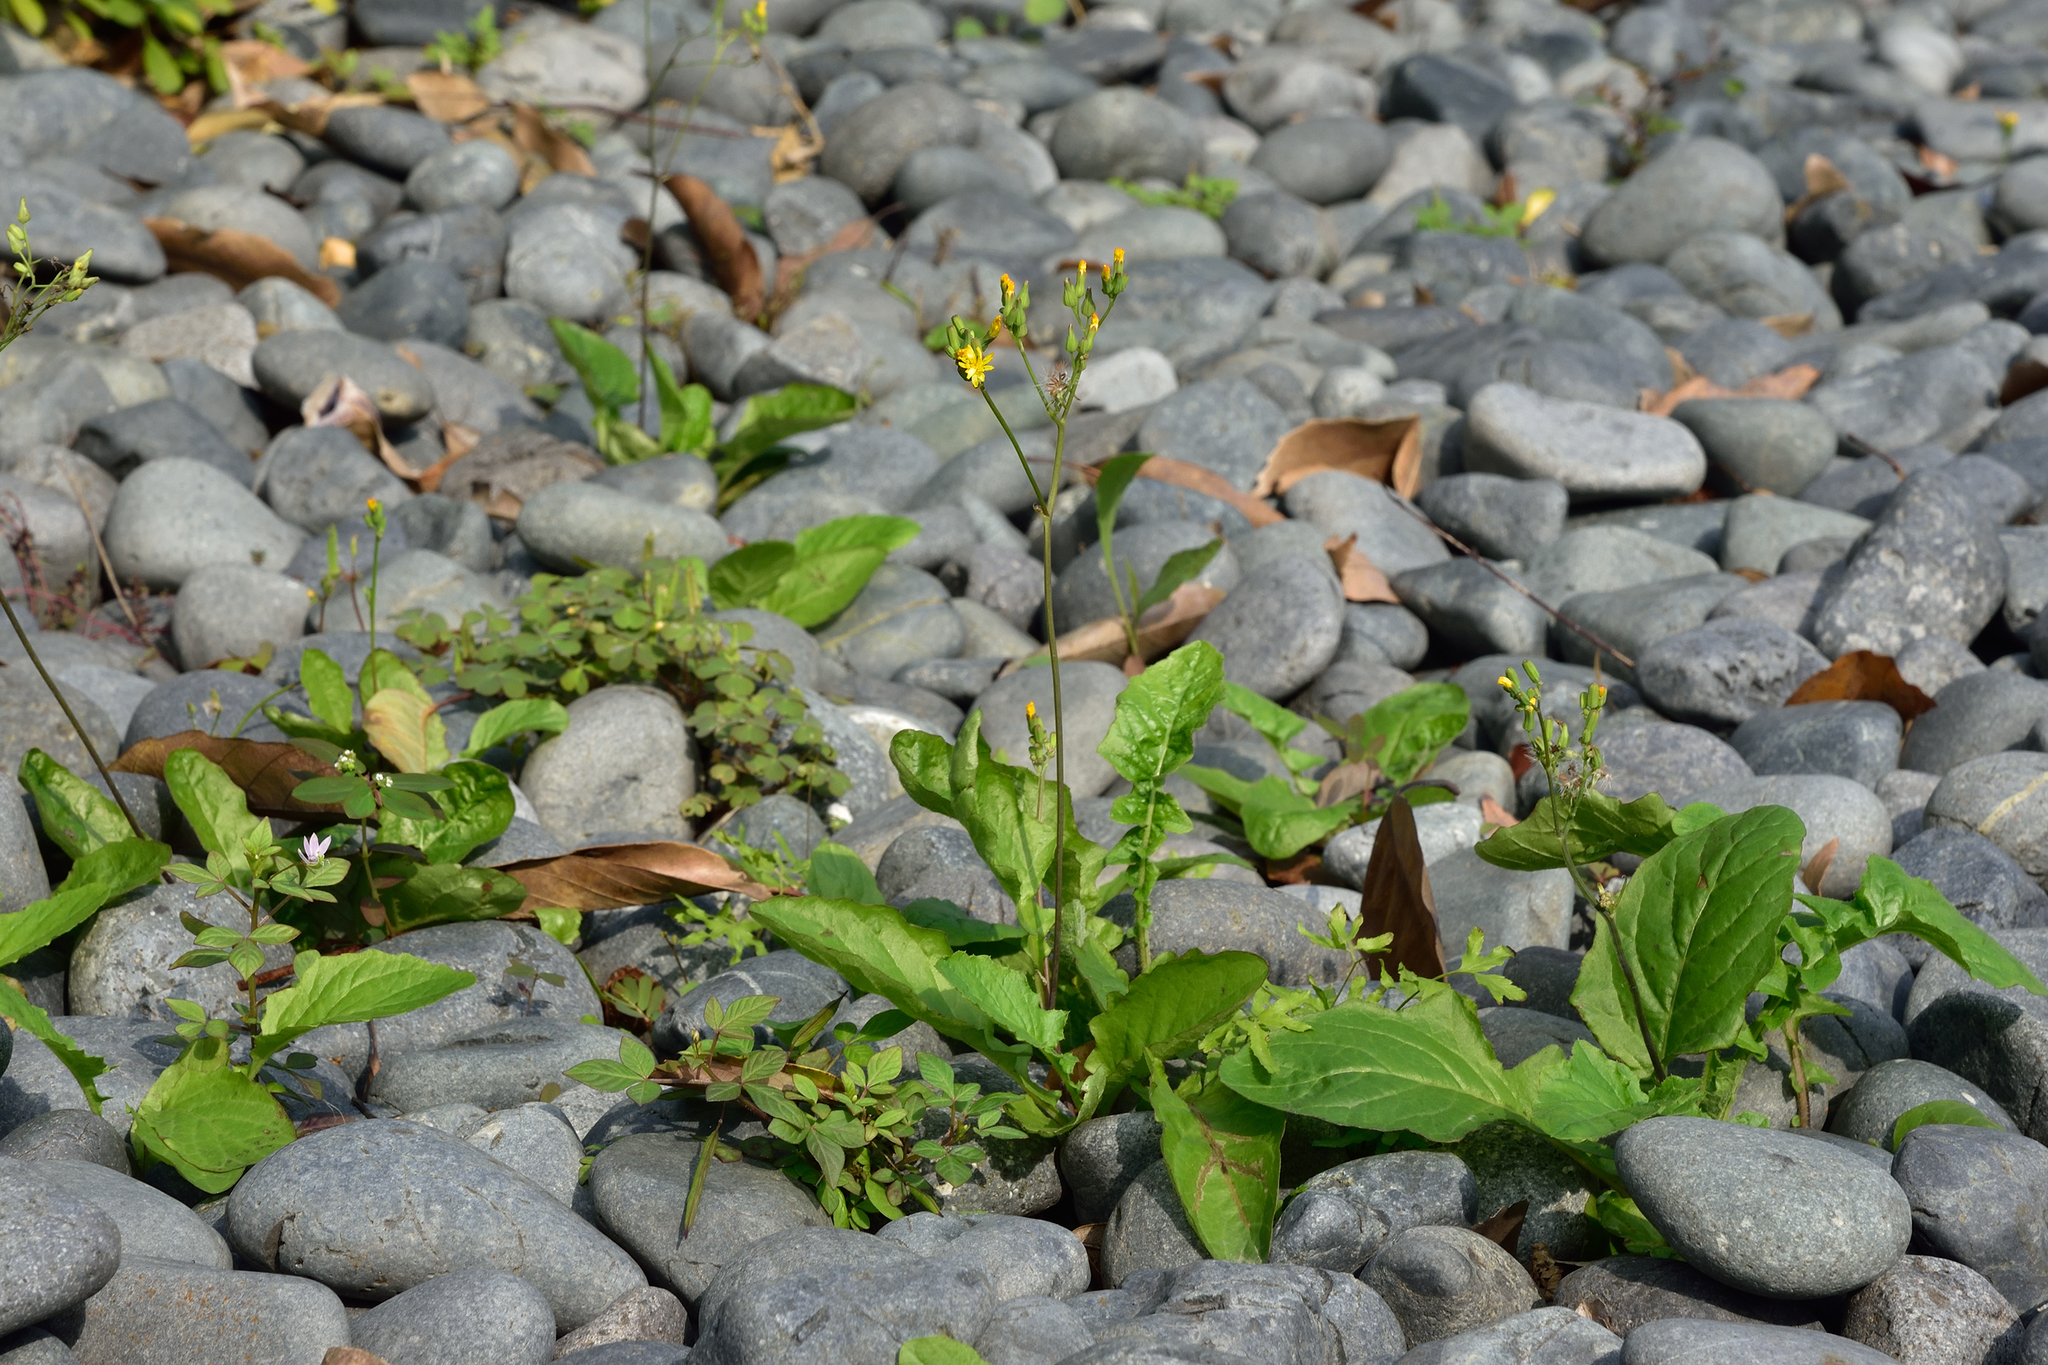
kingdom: Plantae
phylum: Tracheophyta
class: Magnoliopsida
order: Asterales
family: Asteraceae
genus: Youngia
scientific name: Youngia japonica
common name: Oriental false hawksbeard
